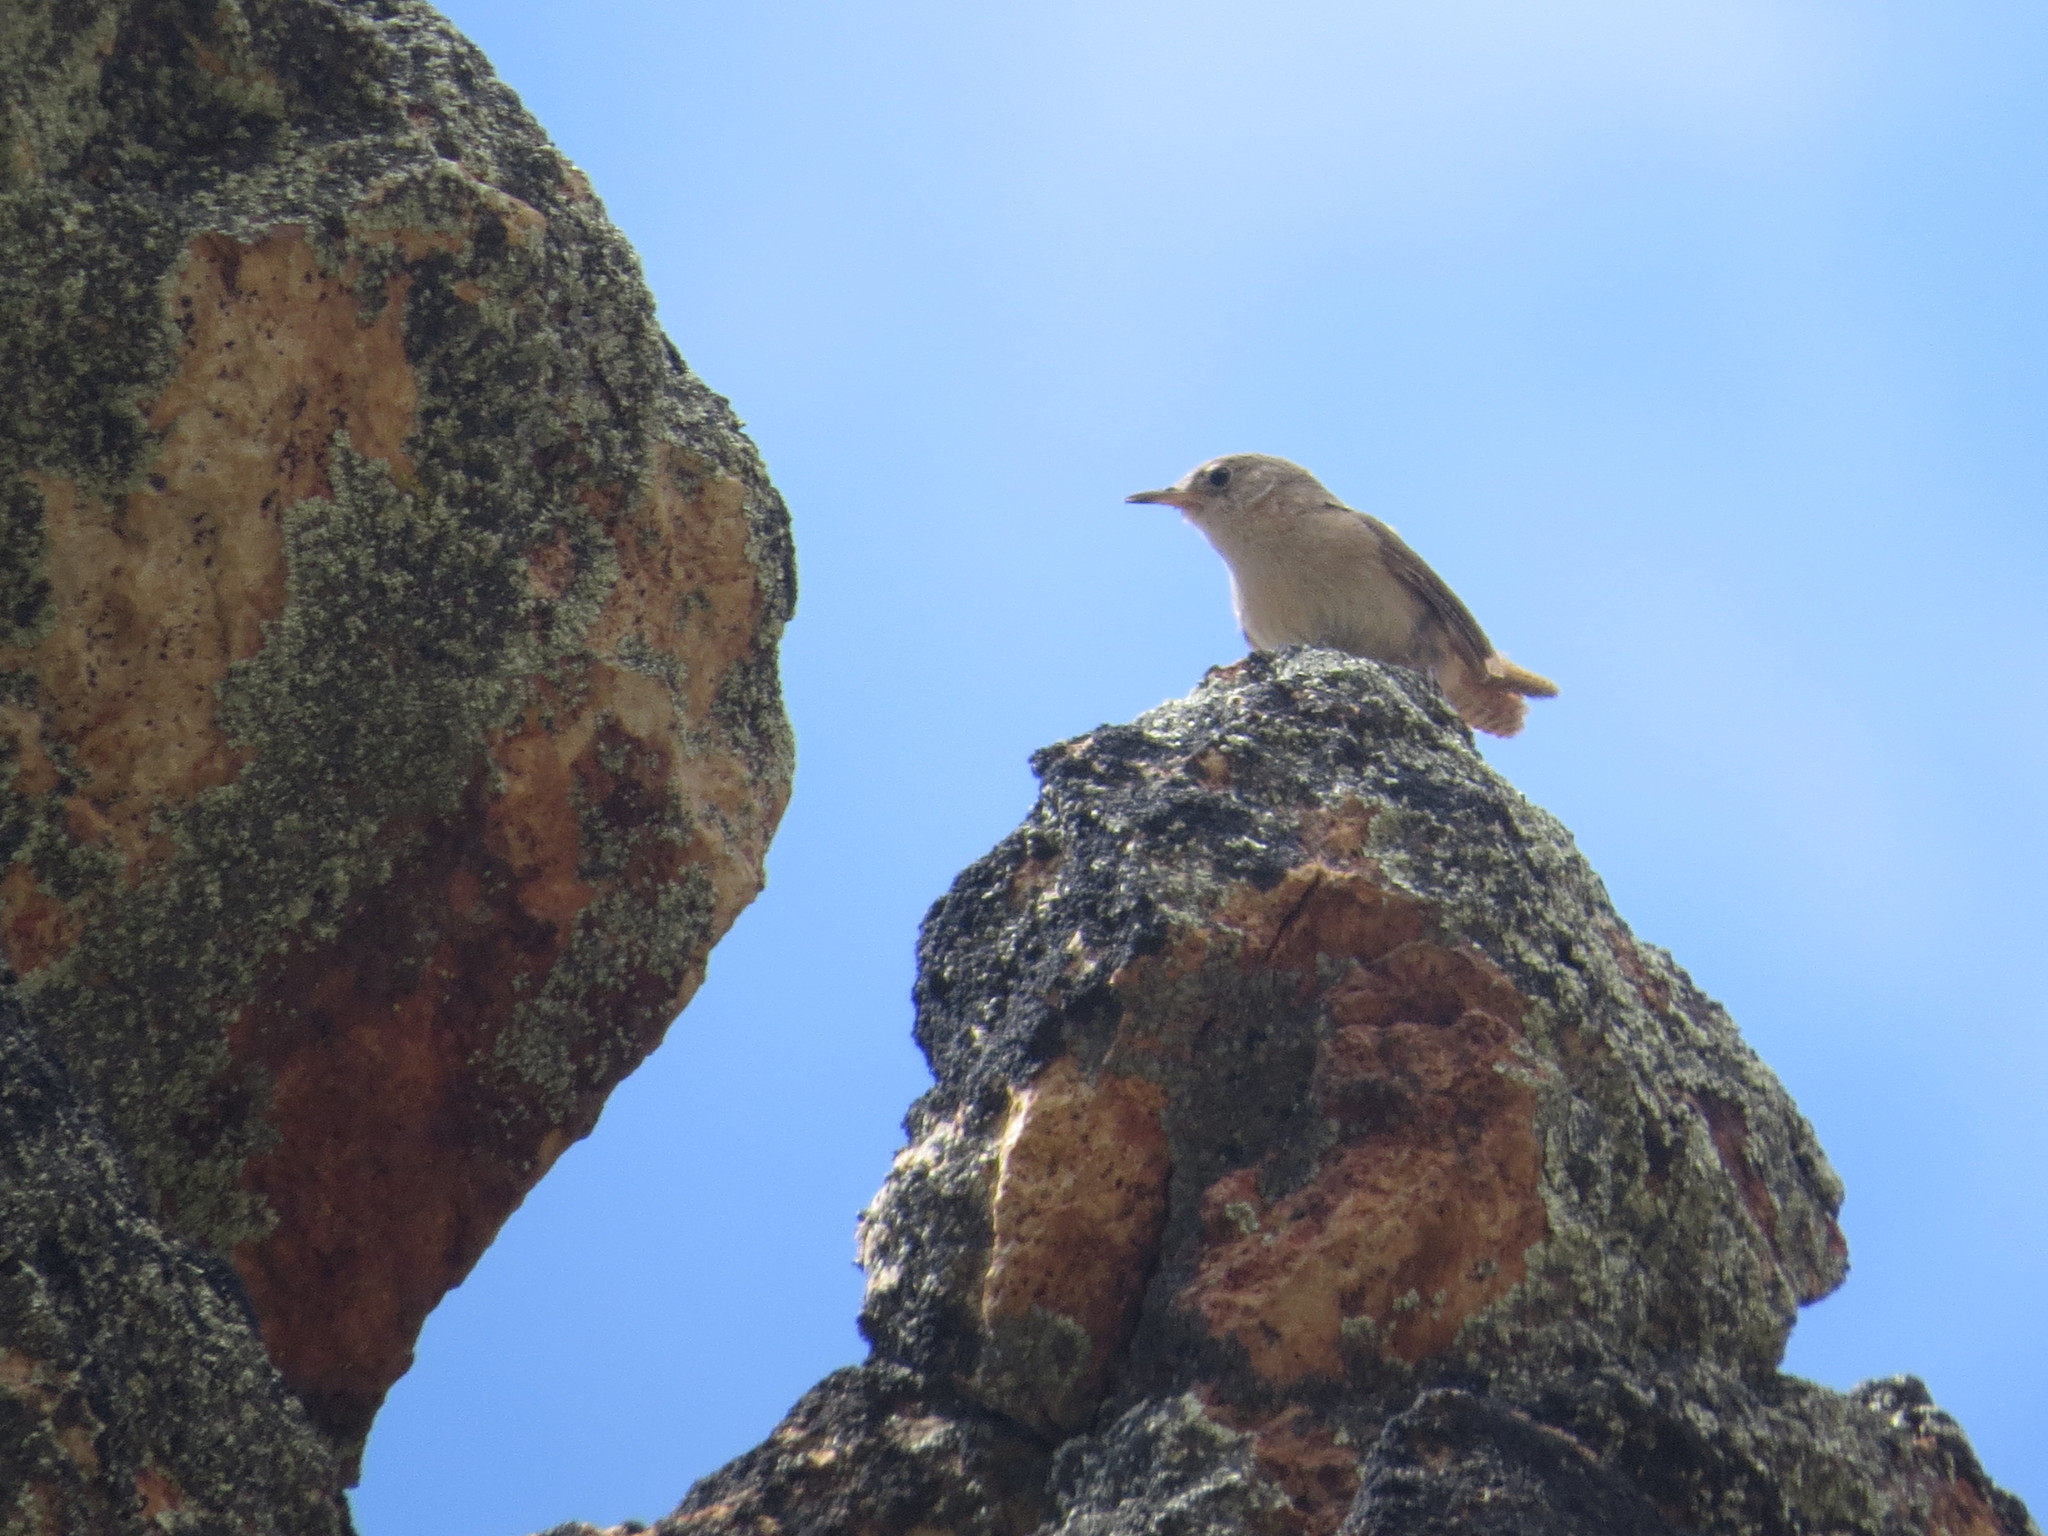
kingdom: Animalia
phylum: Chordata
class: Aves
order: Passeriformes
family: Troglodytidae
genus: Troglodytes
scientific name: Troglodytes aedon
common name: House wren
